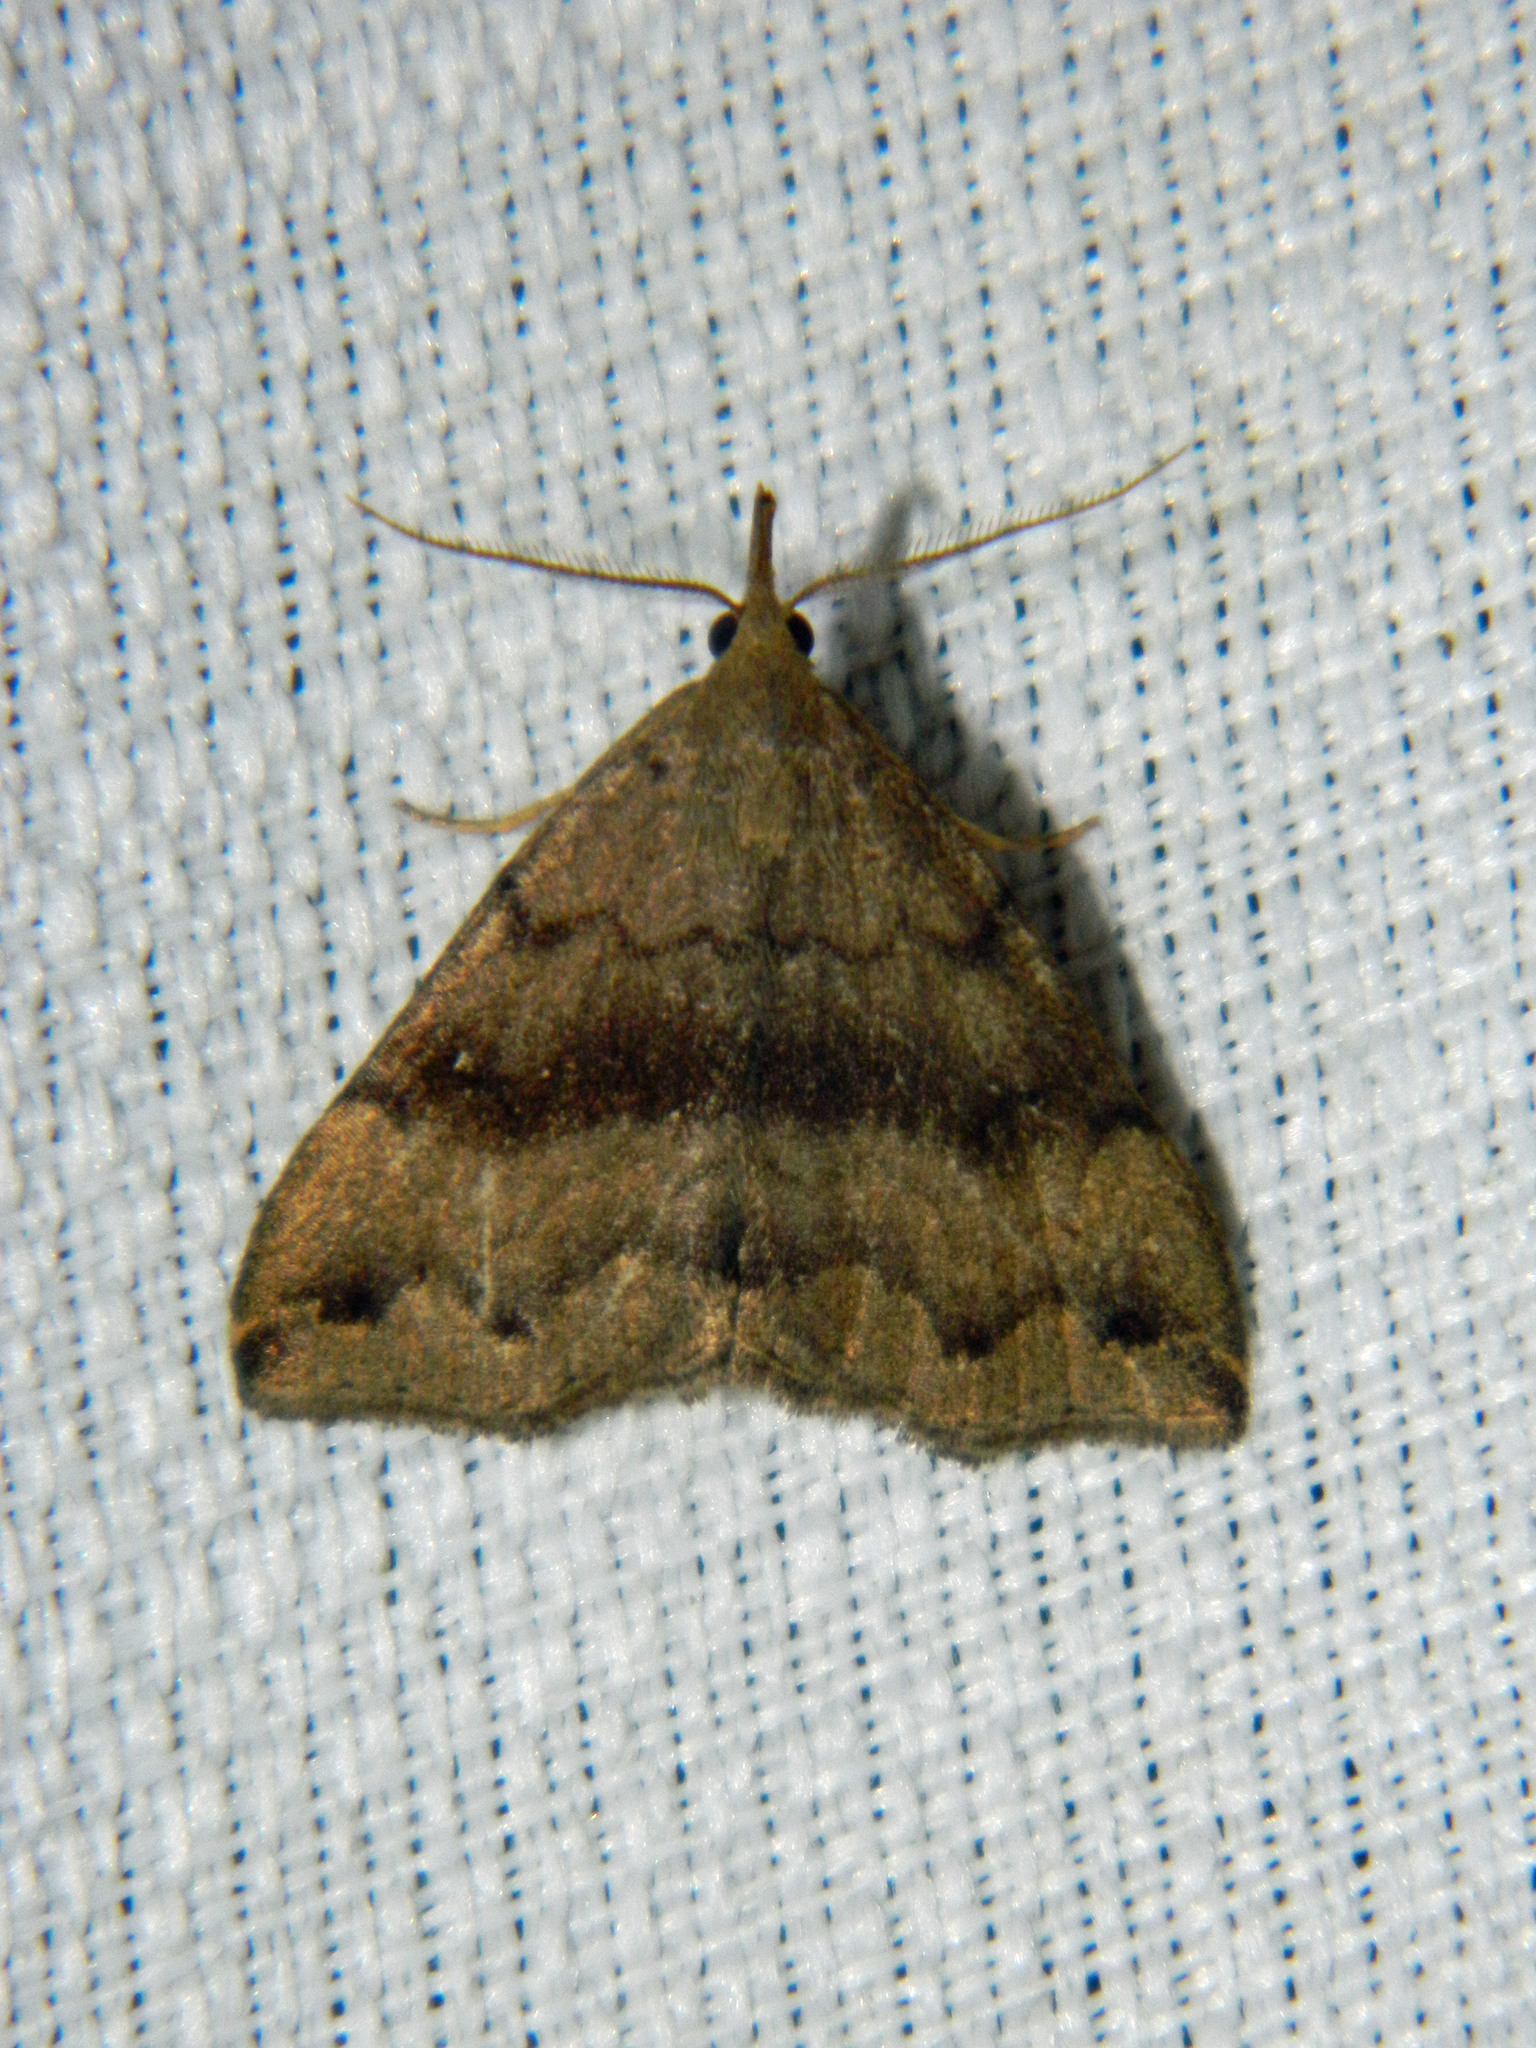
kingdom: Animalia
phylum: Arthropoda
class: Insecta
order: Lepidoptera
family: Erebidae
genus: Phalaenostola
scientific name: Phalaenostola eumelusalis
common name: Dark phalaenostola moth
